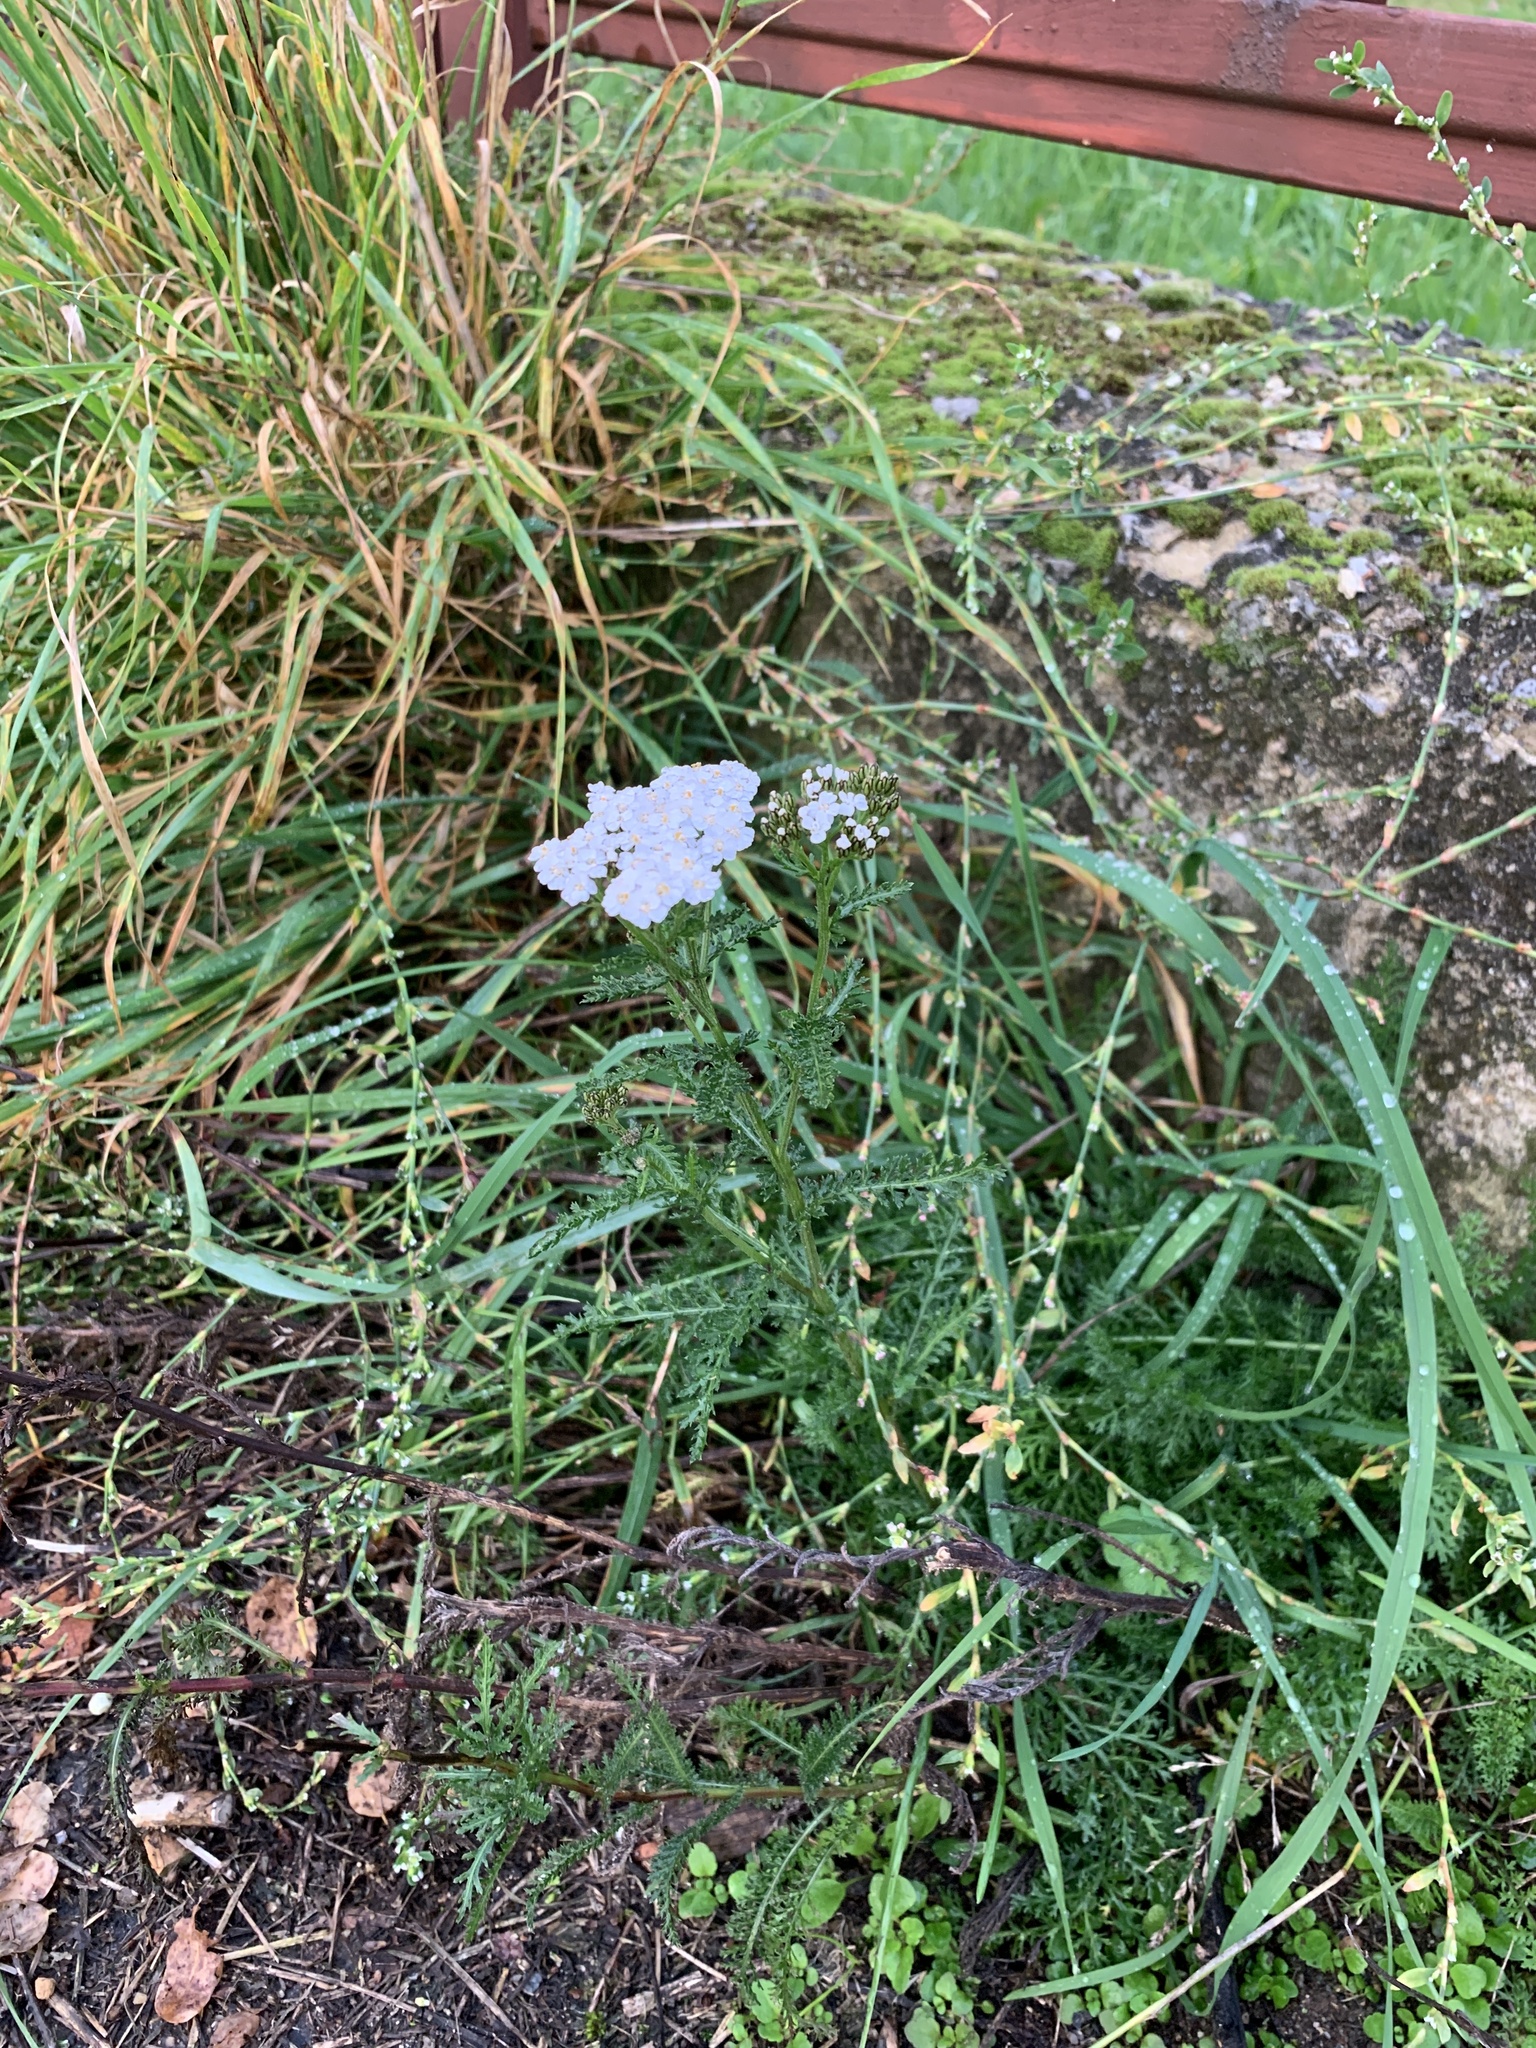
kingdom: Plantae
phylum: Tracheophyta
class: Magnoliopsida
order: Asterales
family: Asteraceae
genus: Achillea
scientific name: Achillea millefolium
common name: Yarrow
